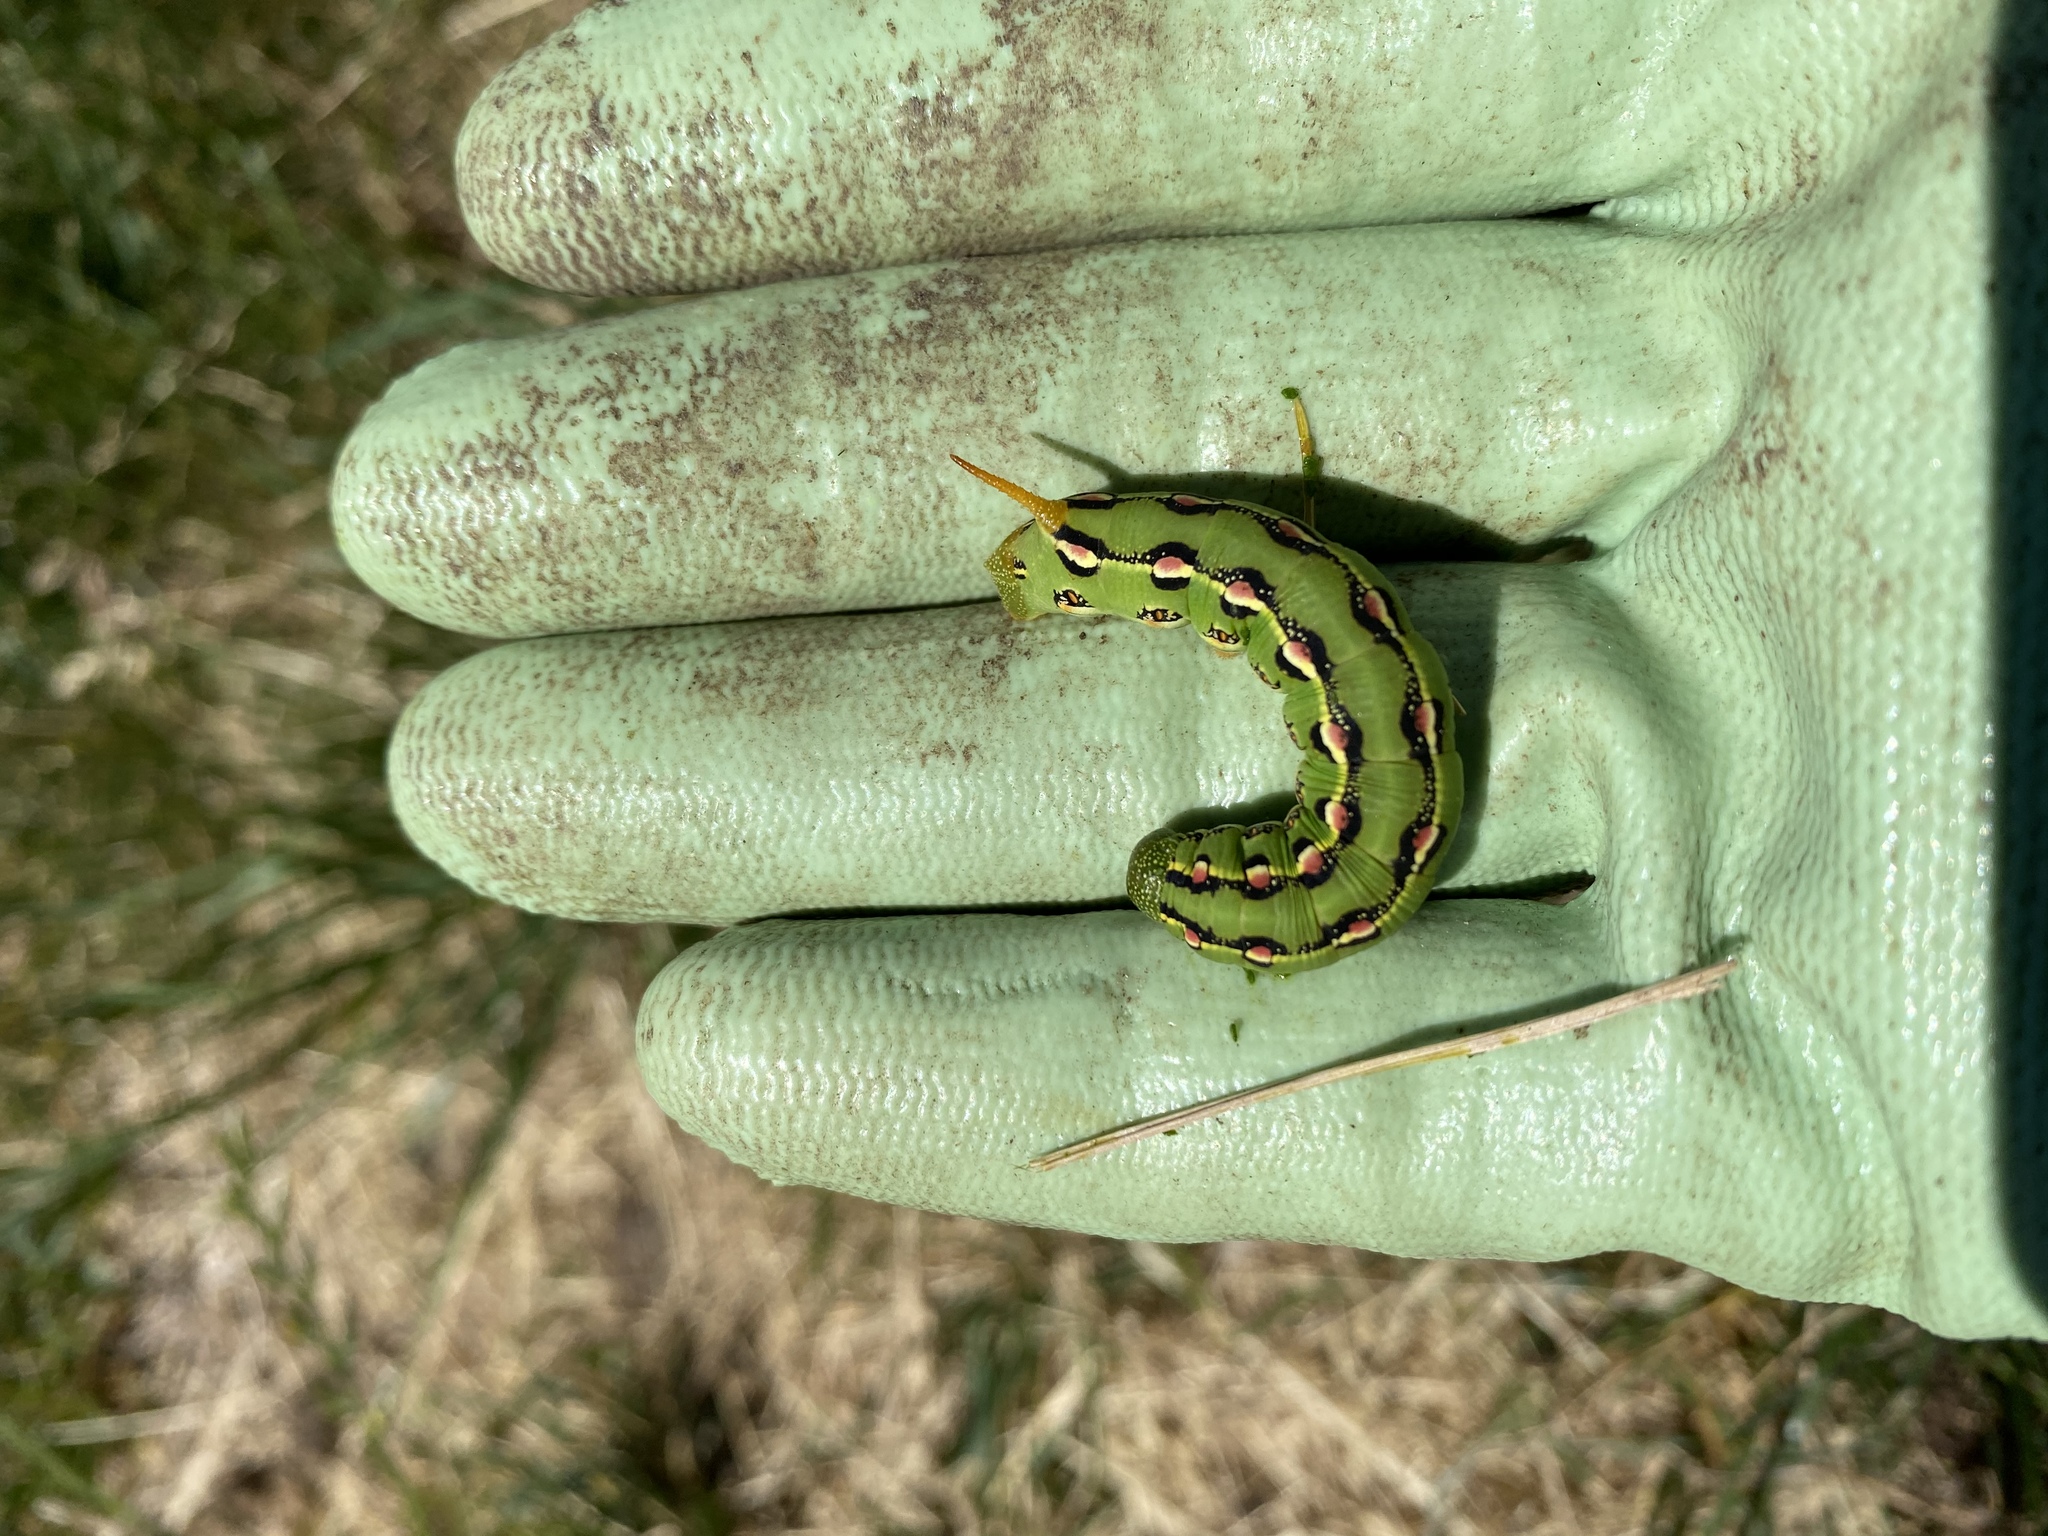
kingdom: Animalia
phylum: Arthropoda
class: Insecta
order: Lepidoptera
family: Sphingidae
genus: Hyles
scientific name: Hyles lineata
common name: White-lined sphinx
